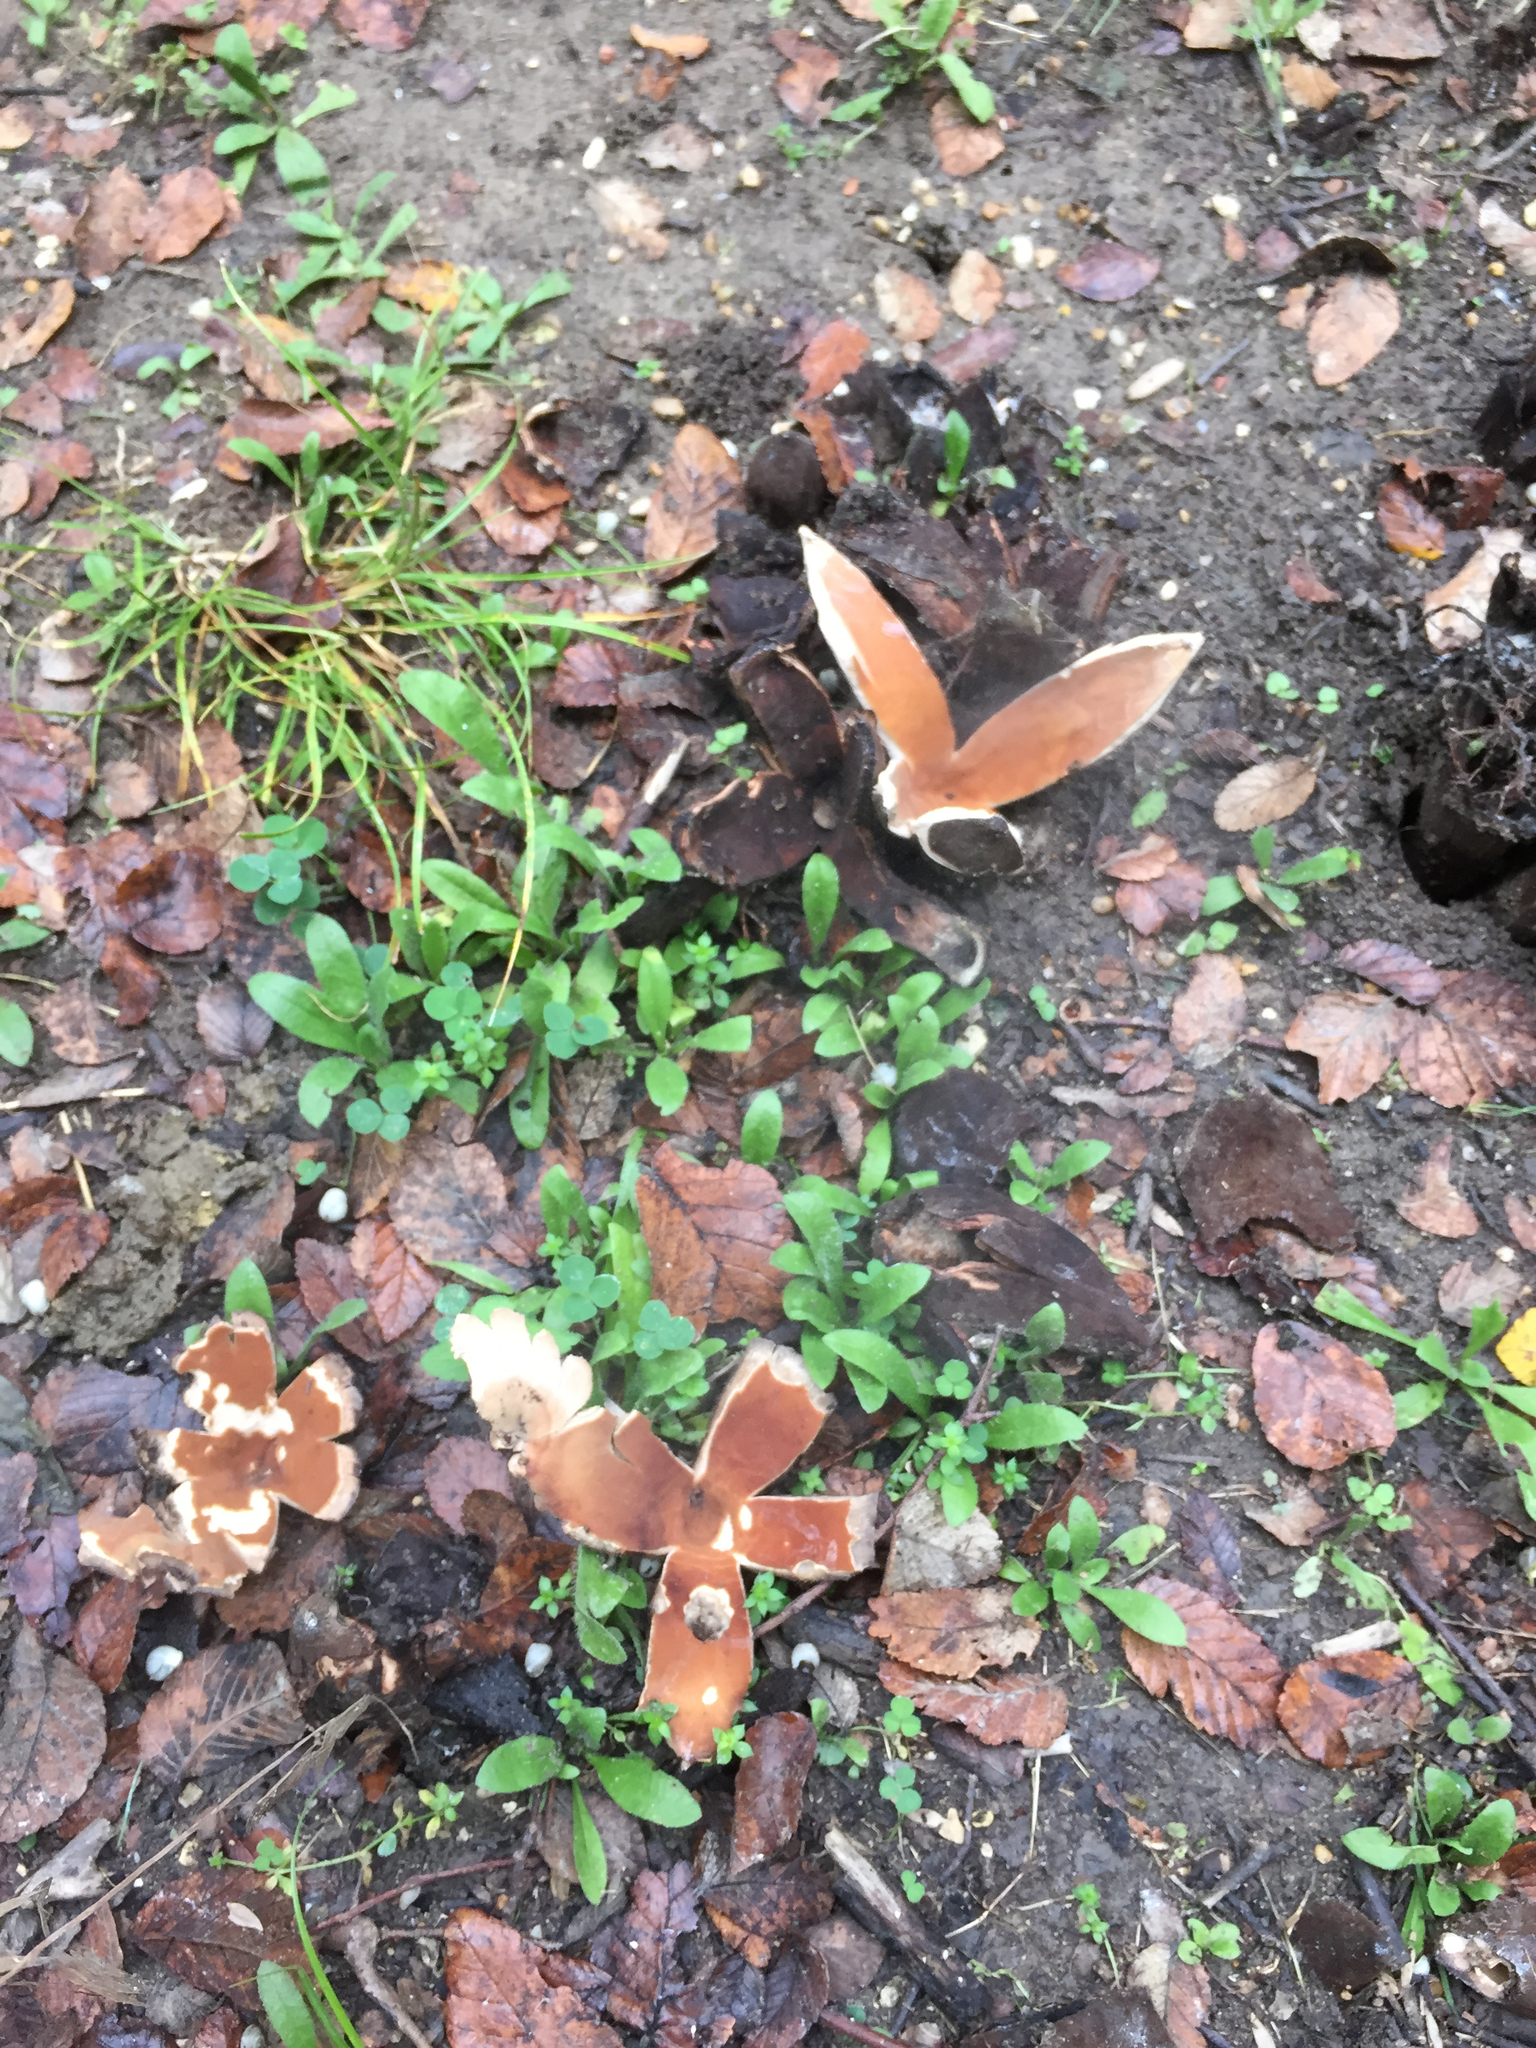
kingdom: Fungi
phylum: Ascomycota
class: Pezizomycetes
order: Pezizales
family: Chorioactidaceae
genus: Chorioactis
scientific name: Chorioactis geaster
